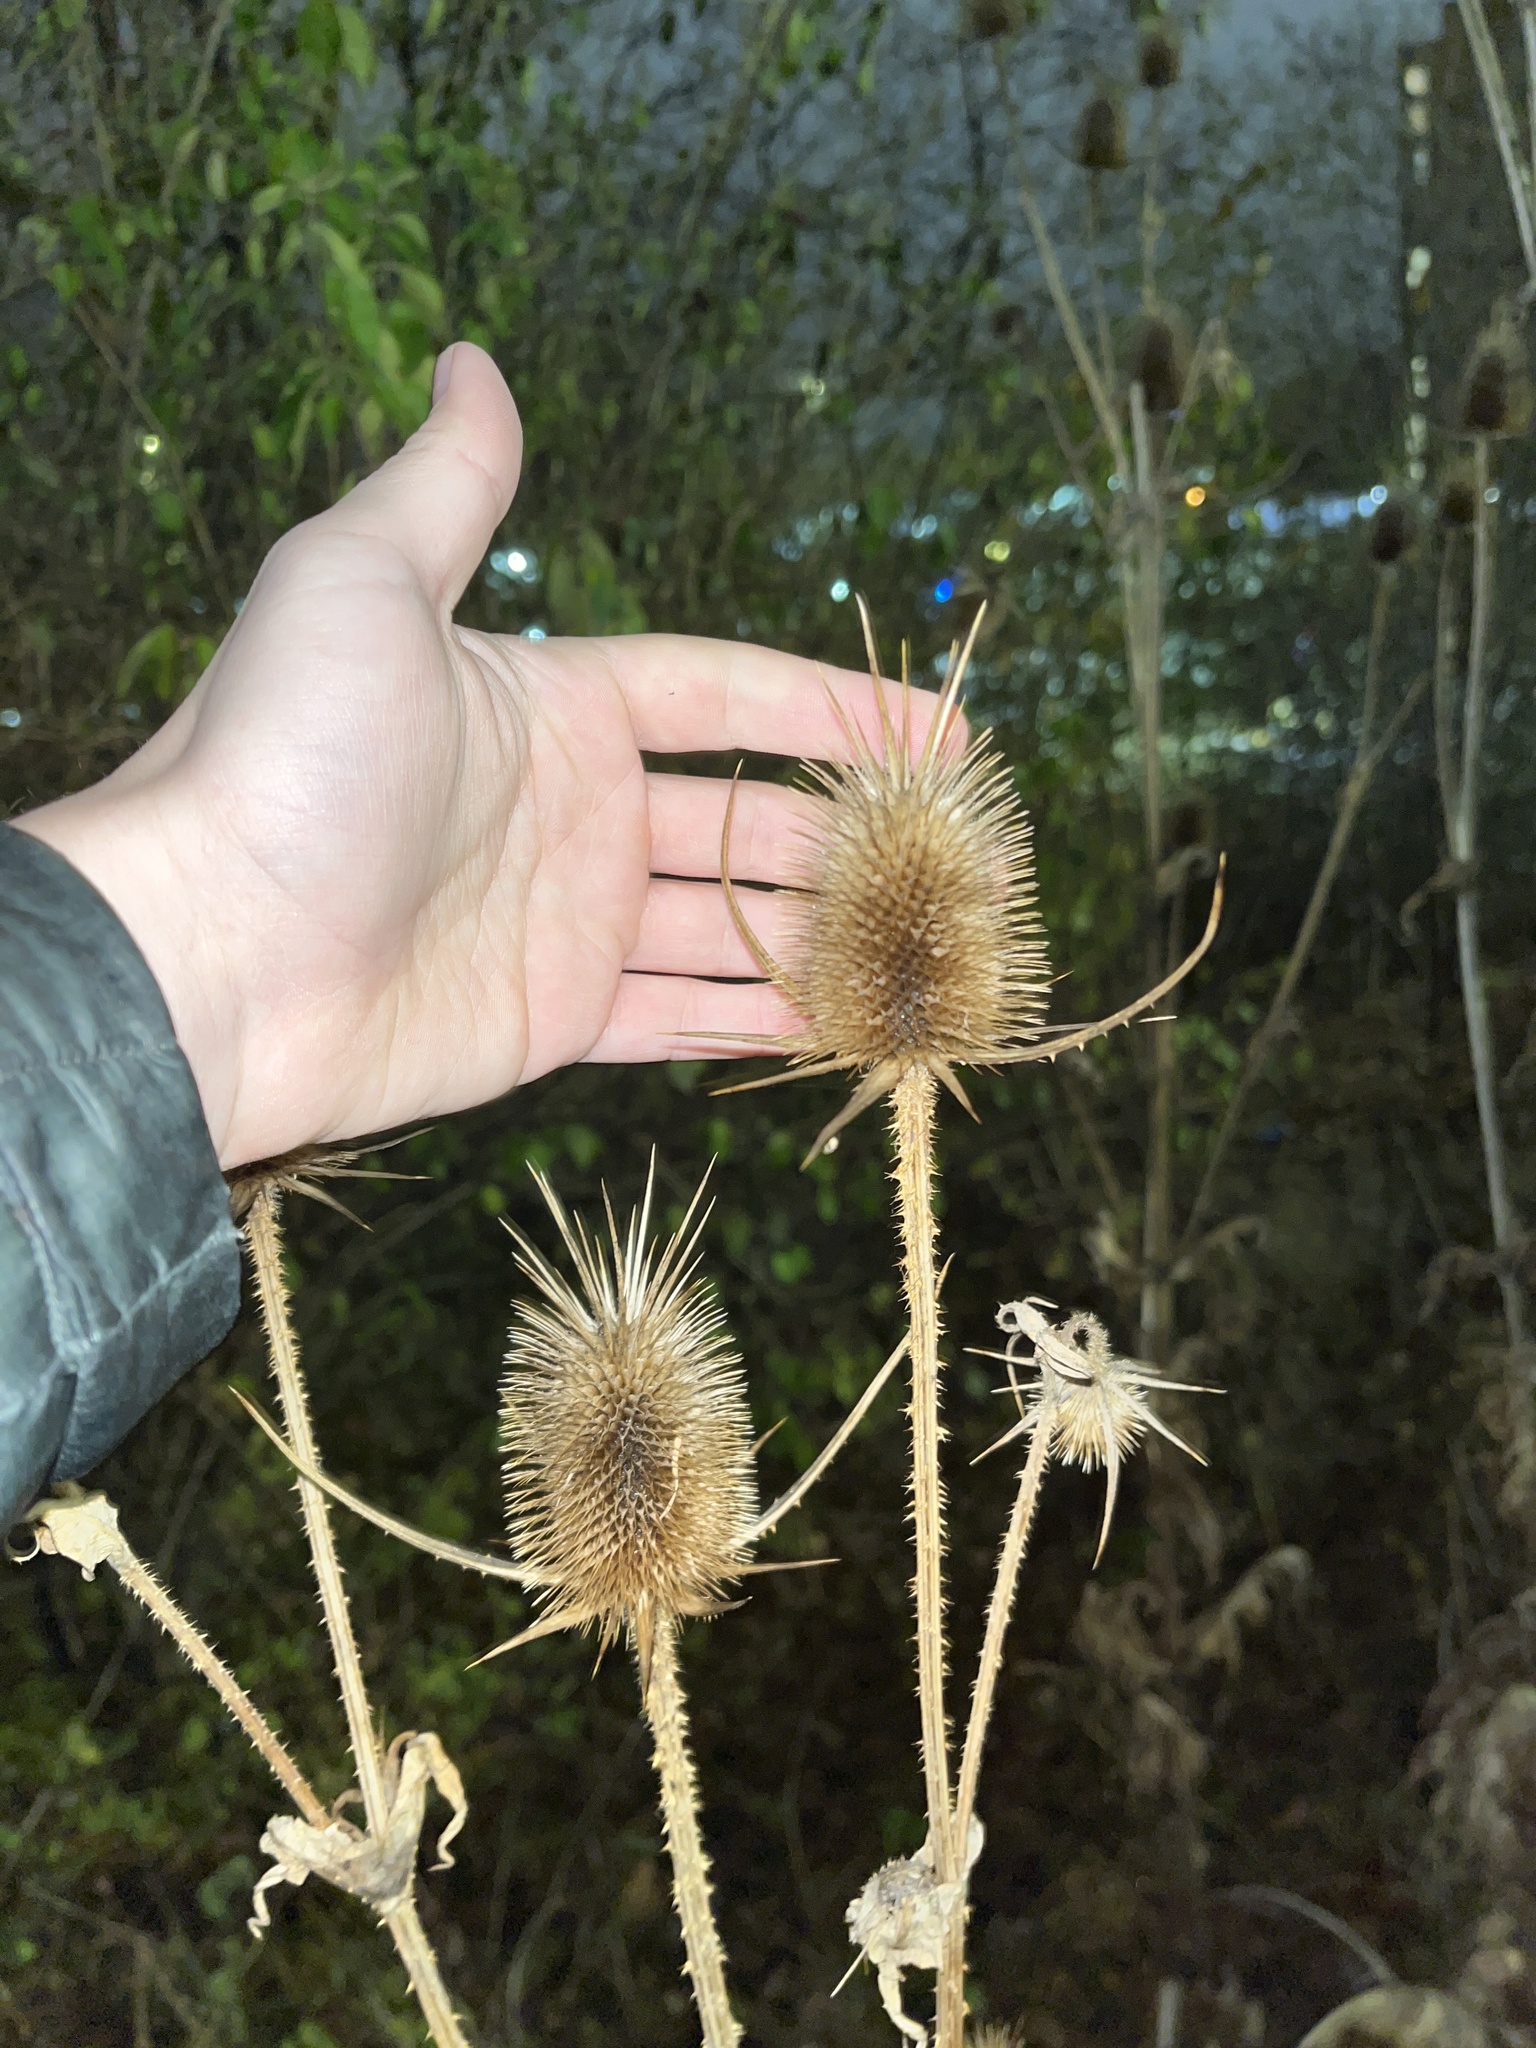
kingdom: Plantae
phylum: Tracheophyta
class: Magnoliopsida
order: Dipsacales
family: Caprifoliaceae
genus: Dipsacus
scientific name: Dipsacus laciniatus
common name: Cut-leaved teasel
